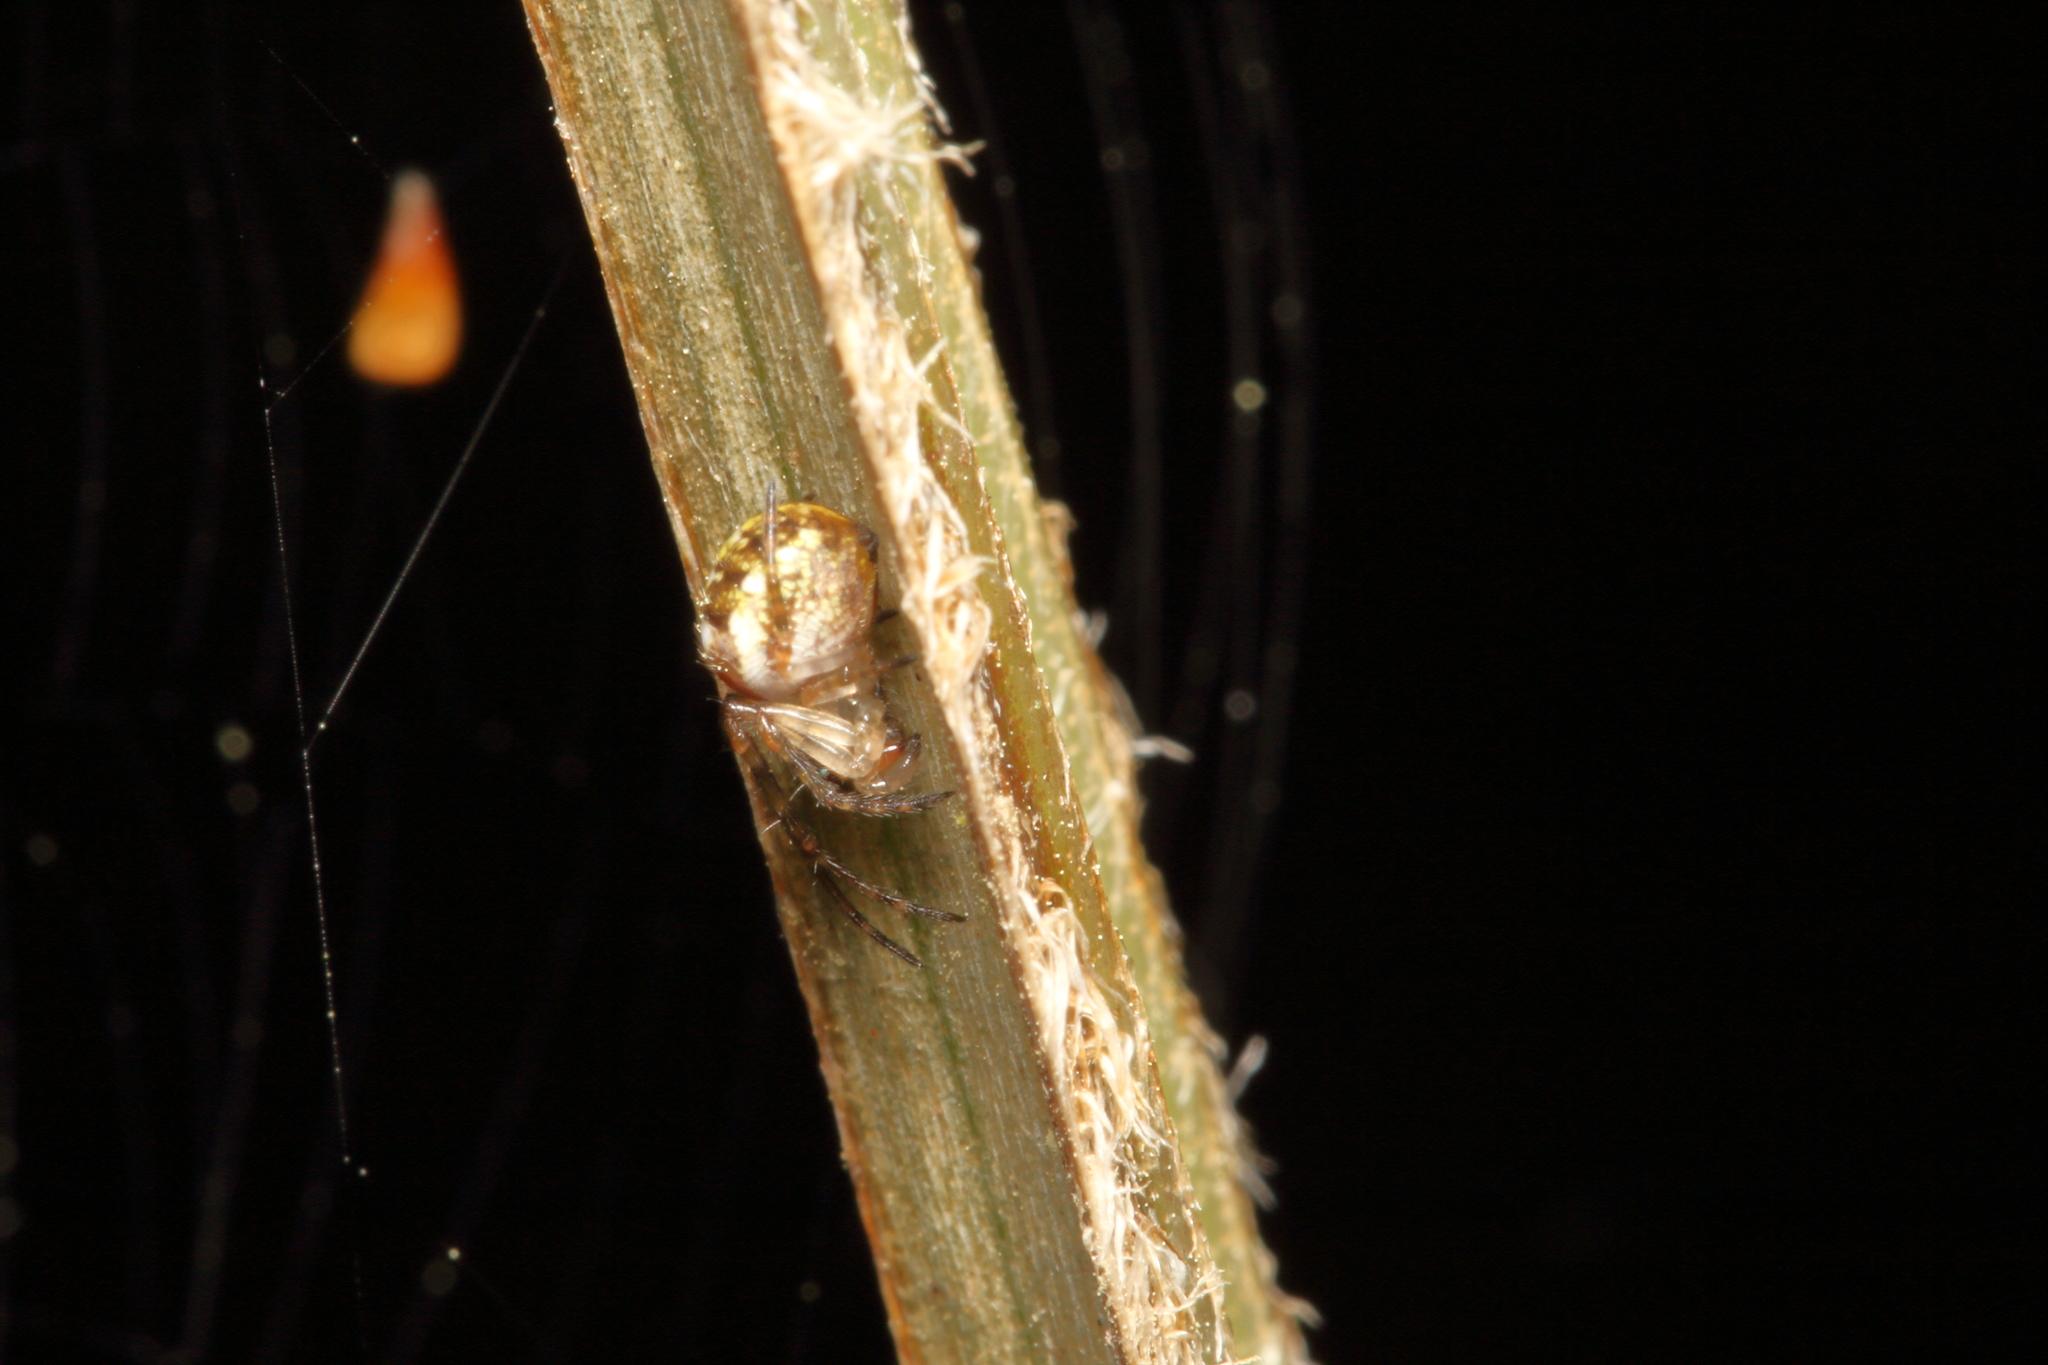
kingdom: Animalia
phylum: Arthropoda
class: Arachnida
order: Araneae
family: Tetragnathidae
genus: Taraire
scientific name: Taraire rufolineata
